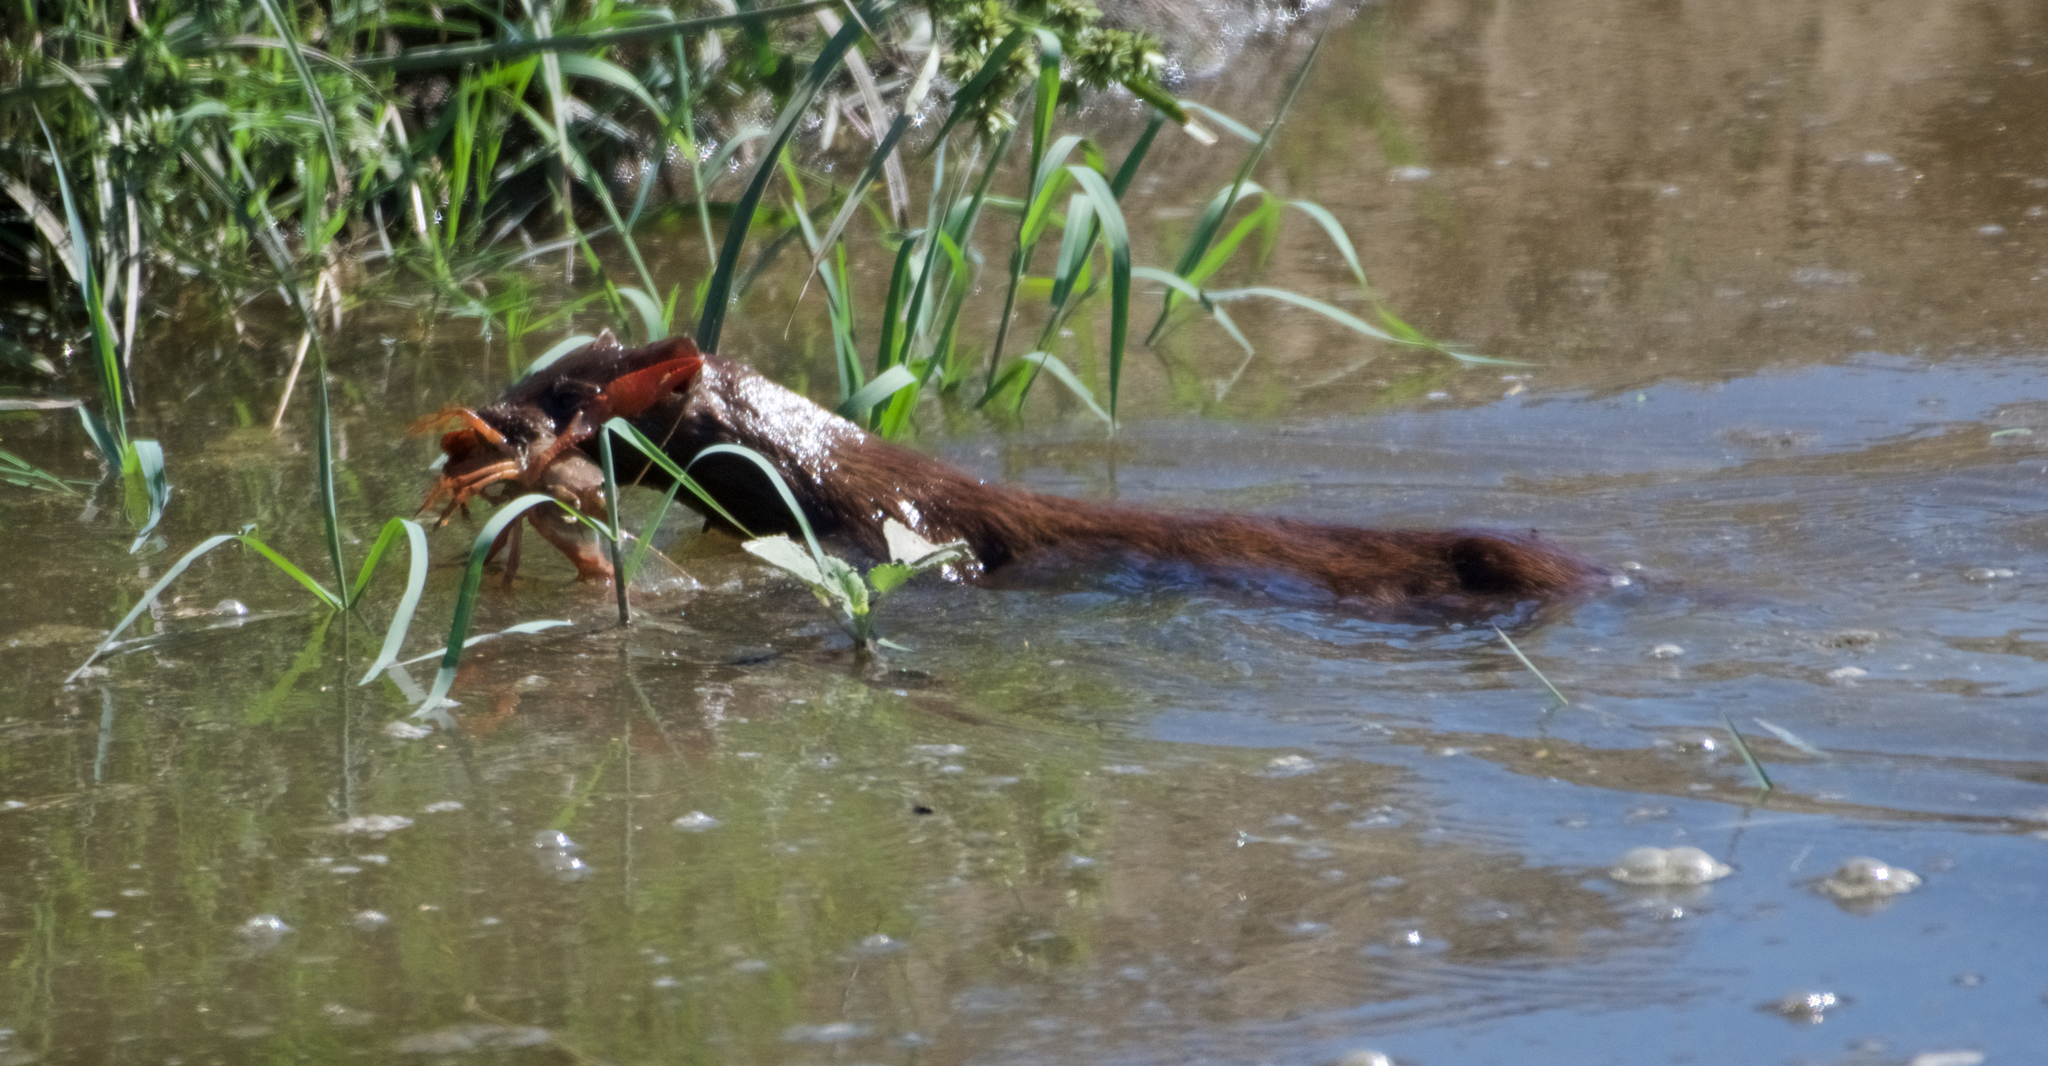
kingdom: Animalia
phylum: Chordata
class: Mammalia
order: Carnivora
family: Mustelidae
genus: Mustela
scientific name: Mustela
